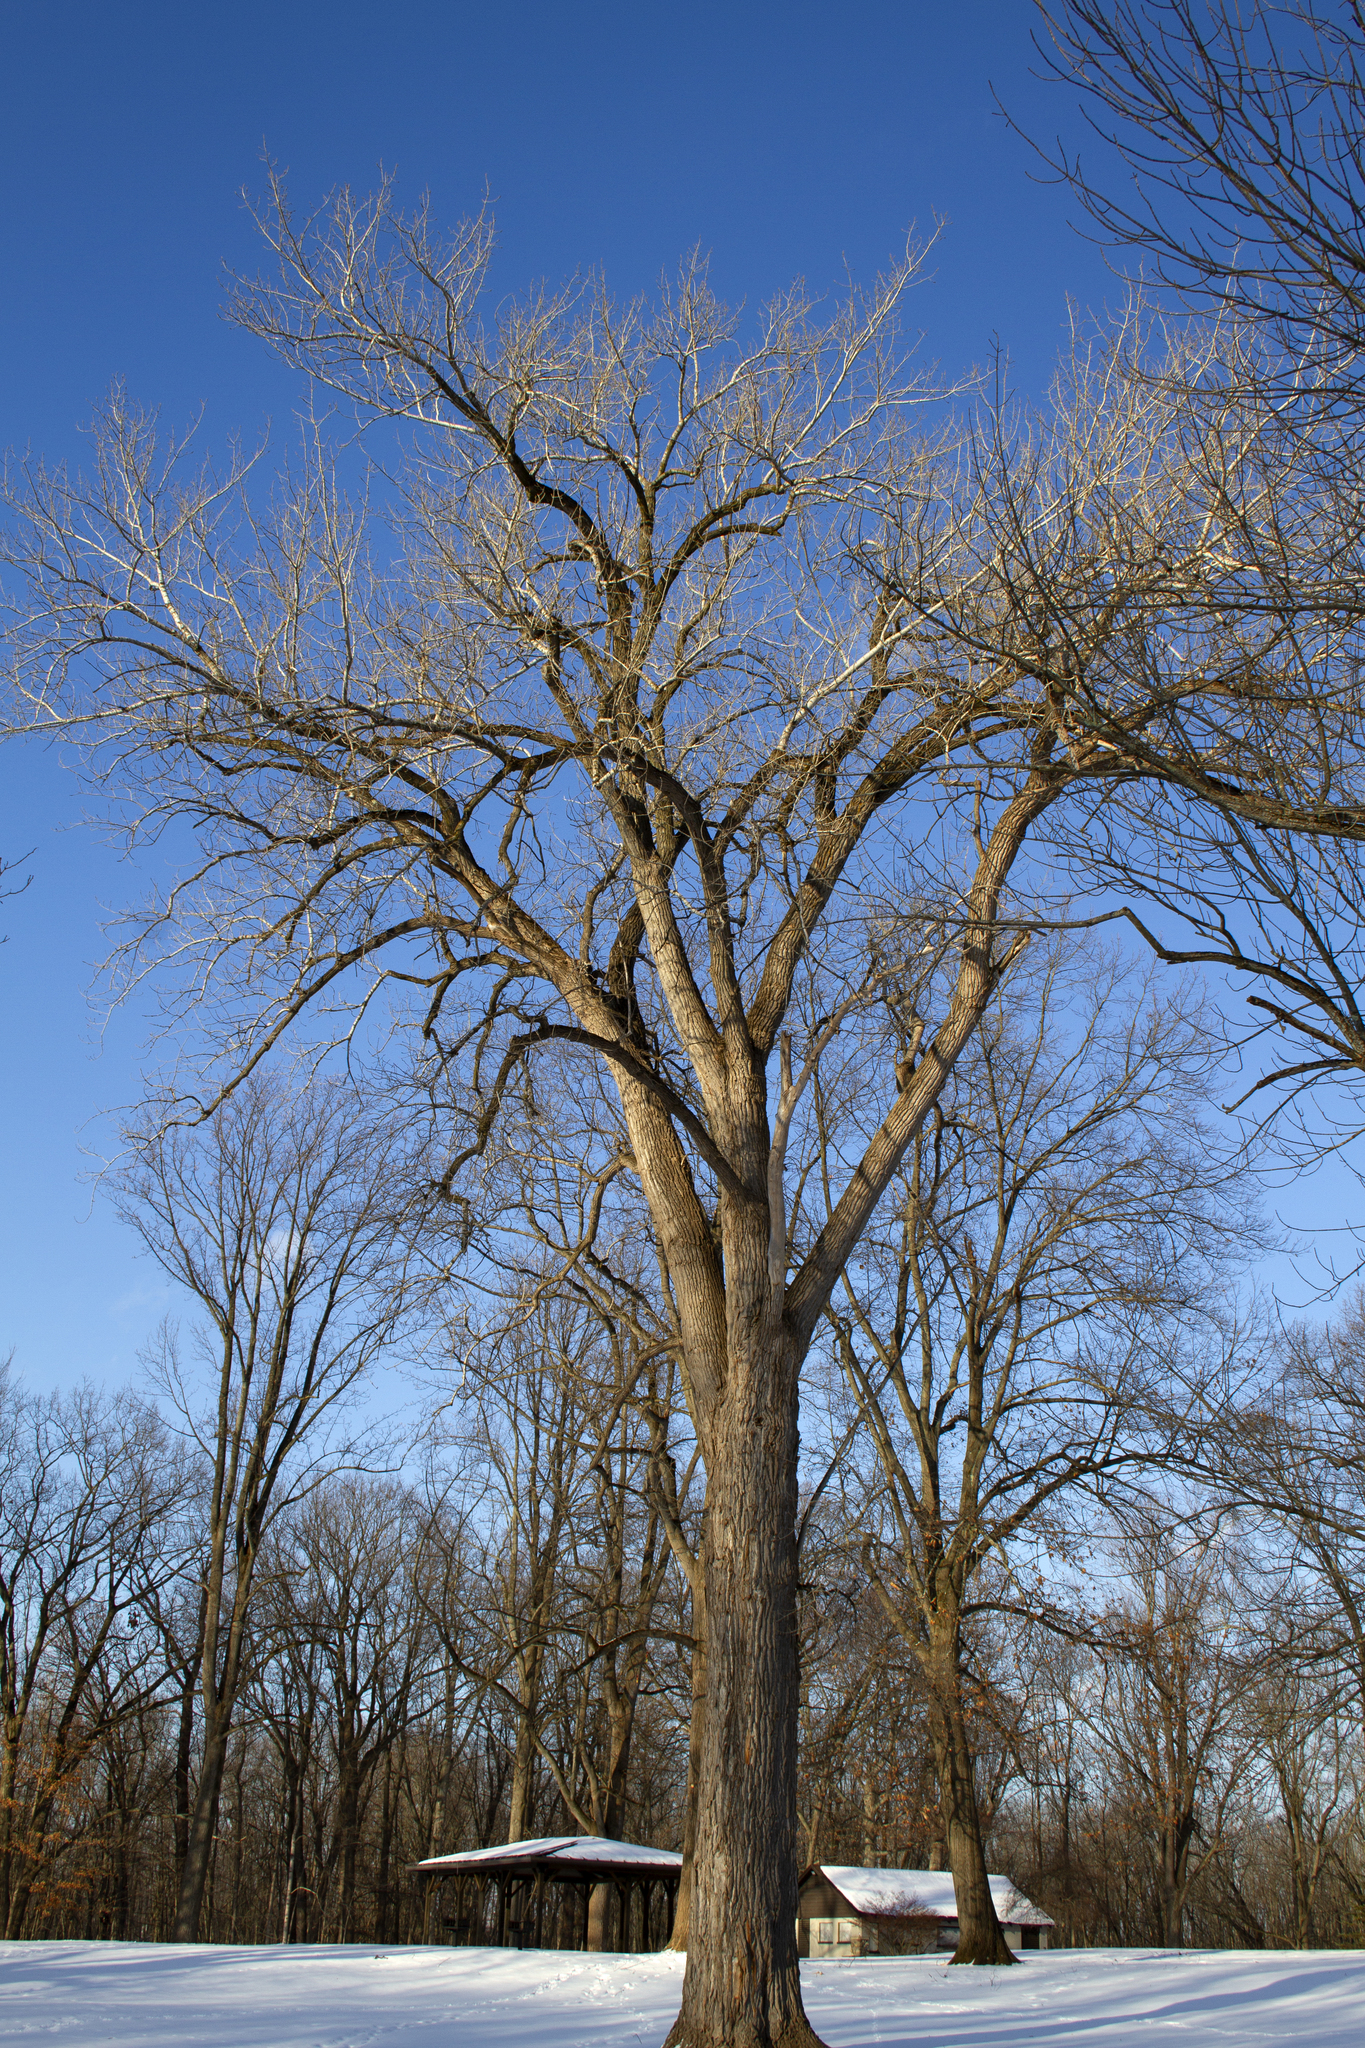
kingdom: Plantae
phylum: Tracheophyta
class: Magnoliopsida
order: Malpighiales
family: Salicaceae
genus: Populus
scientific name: Populus deltoides
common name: Eastern cottonwood
